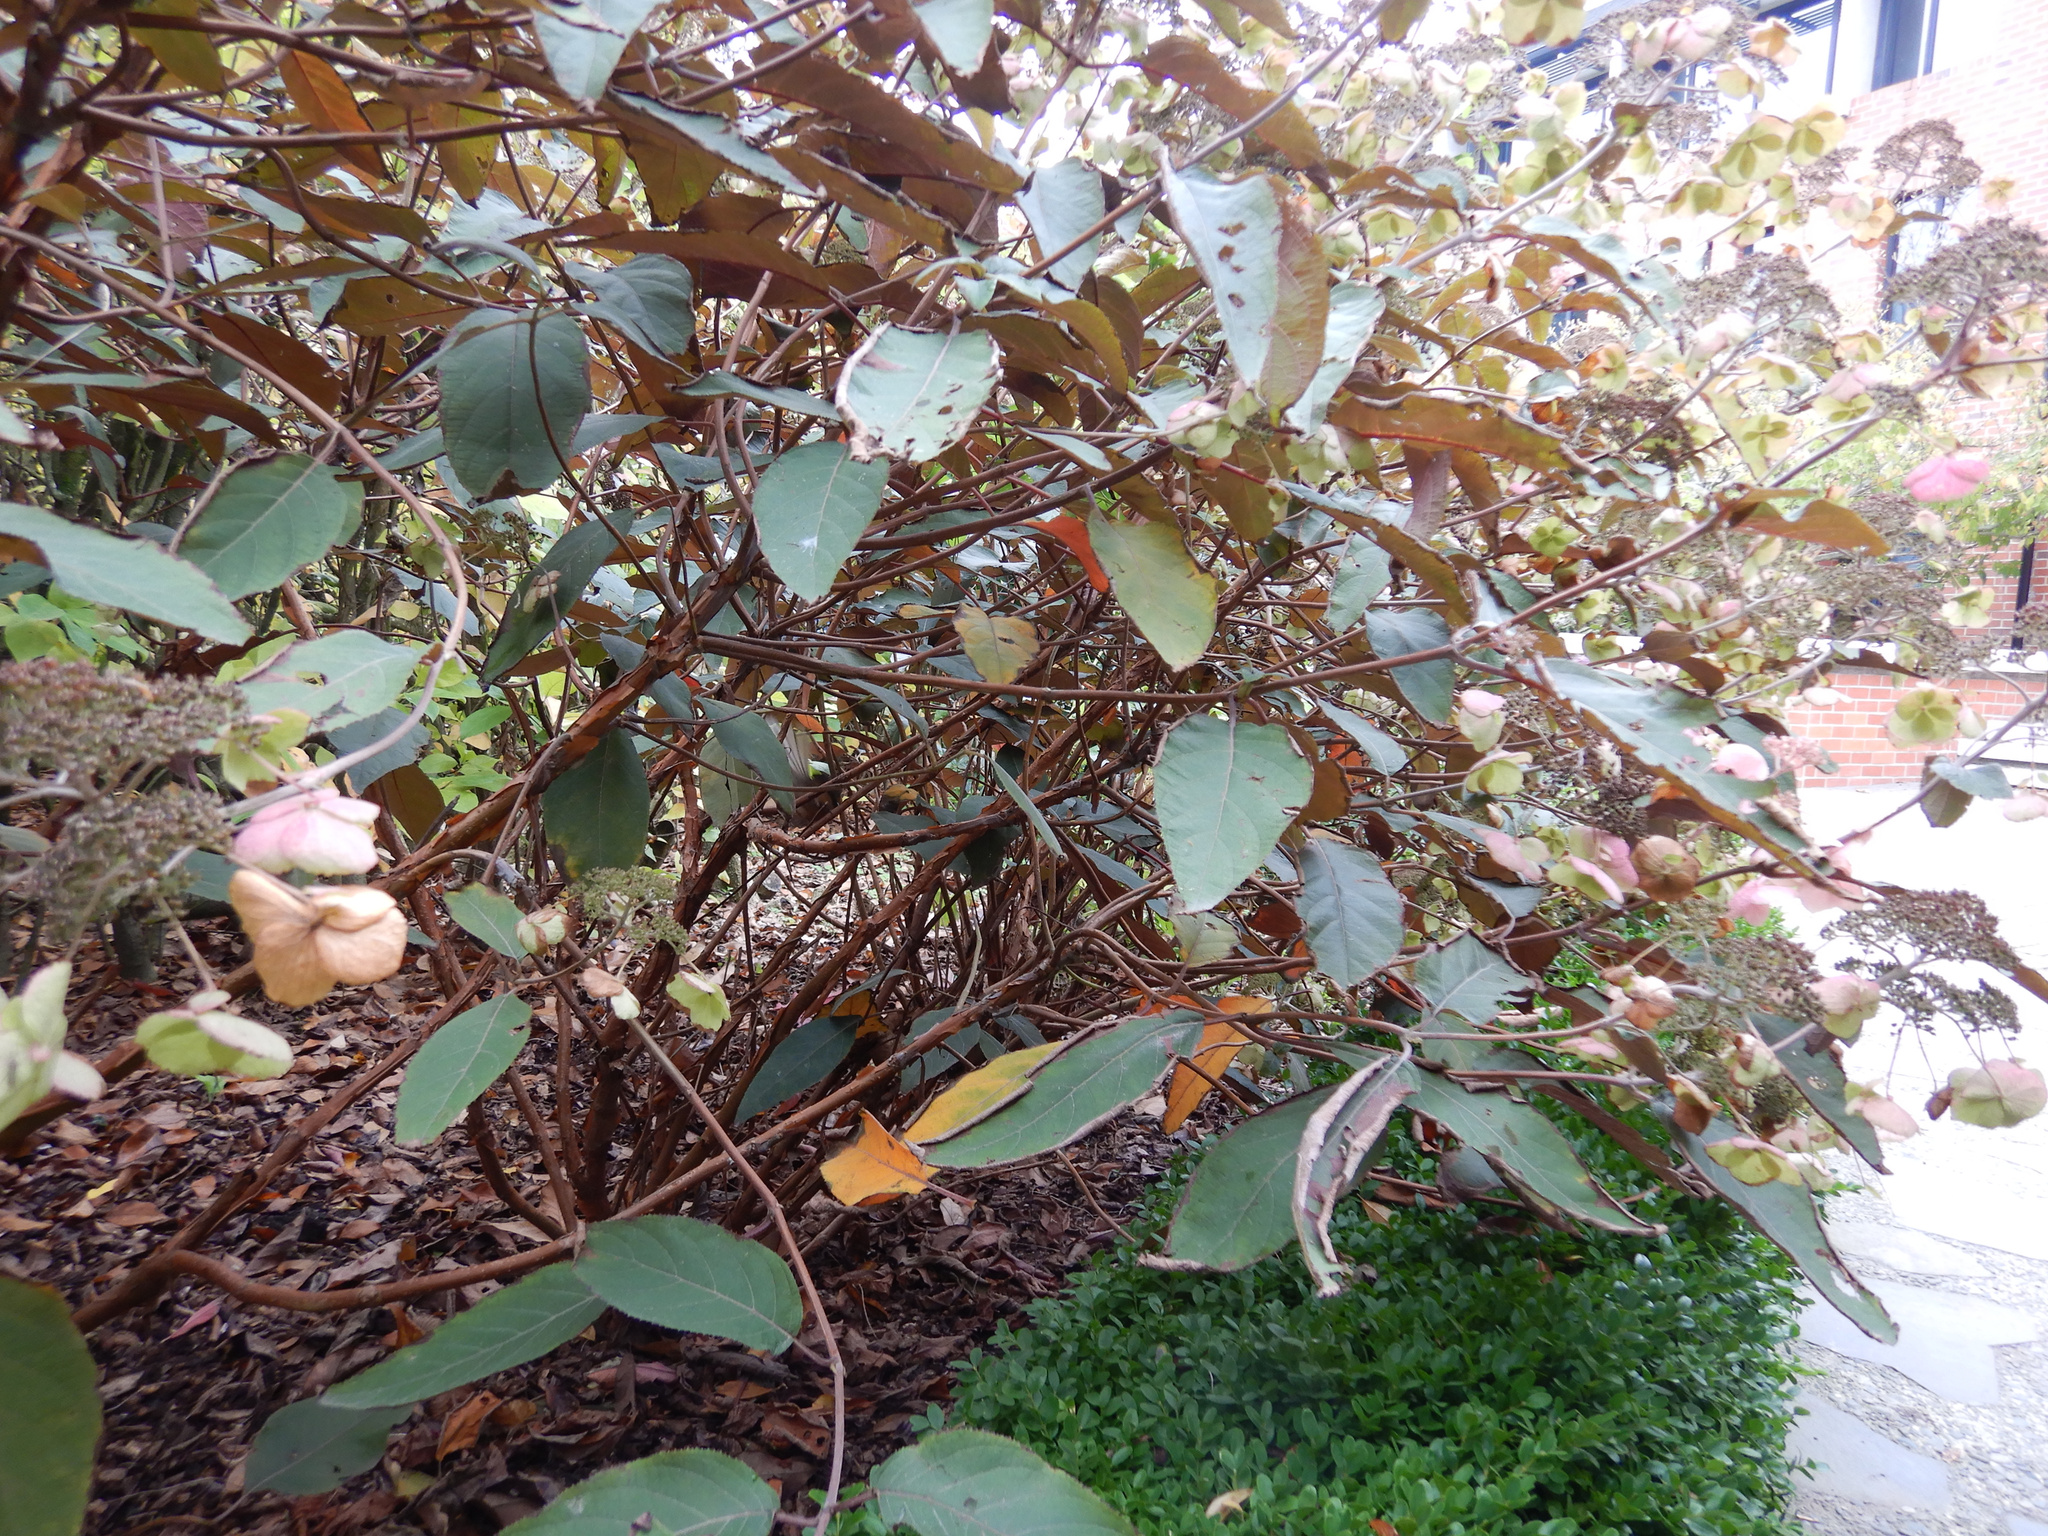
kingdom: Animalia
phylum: Chordata
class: Aves
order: Passeriformes
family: Rhipiduridae
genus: Rhipidura
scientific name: Rhipidura fuliginosa
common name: New zealand fantail
